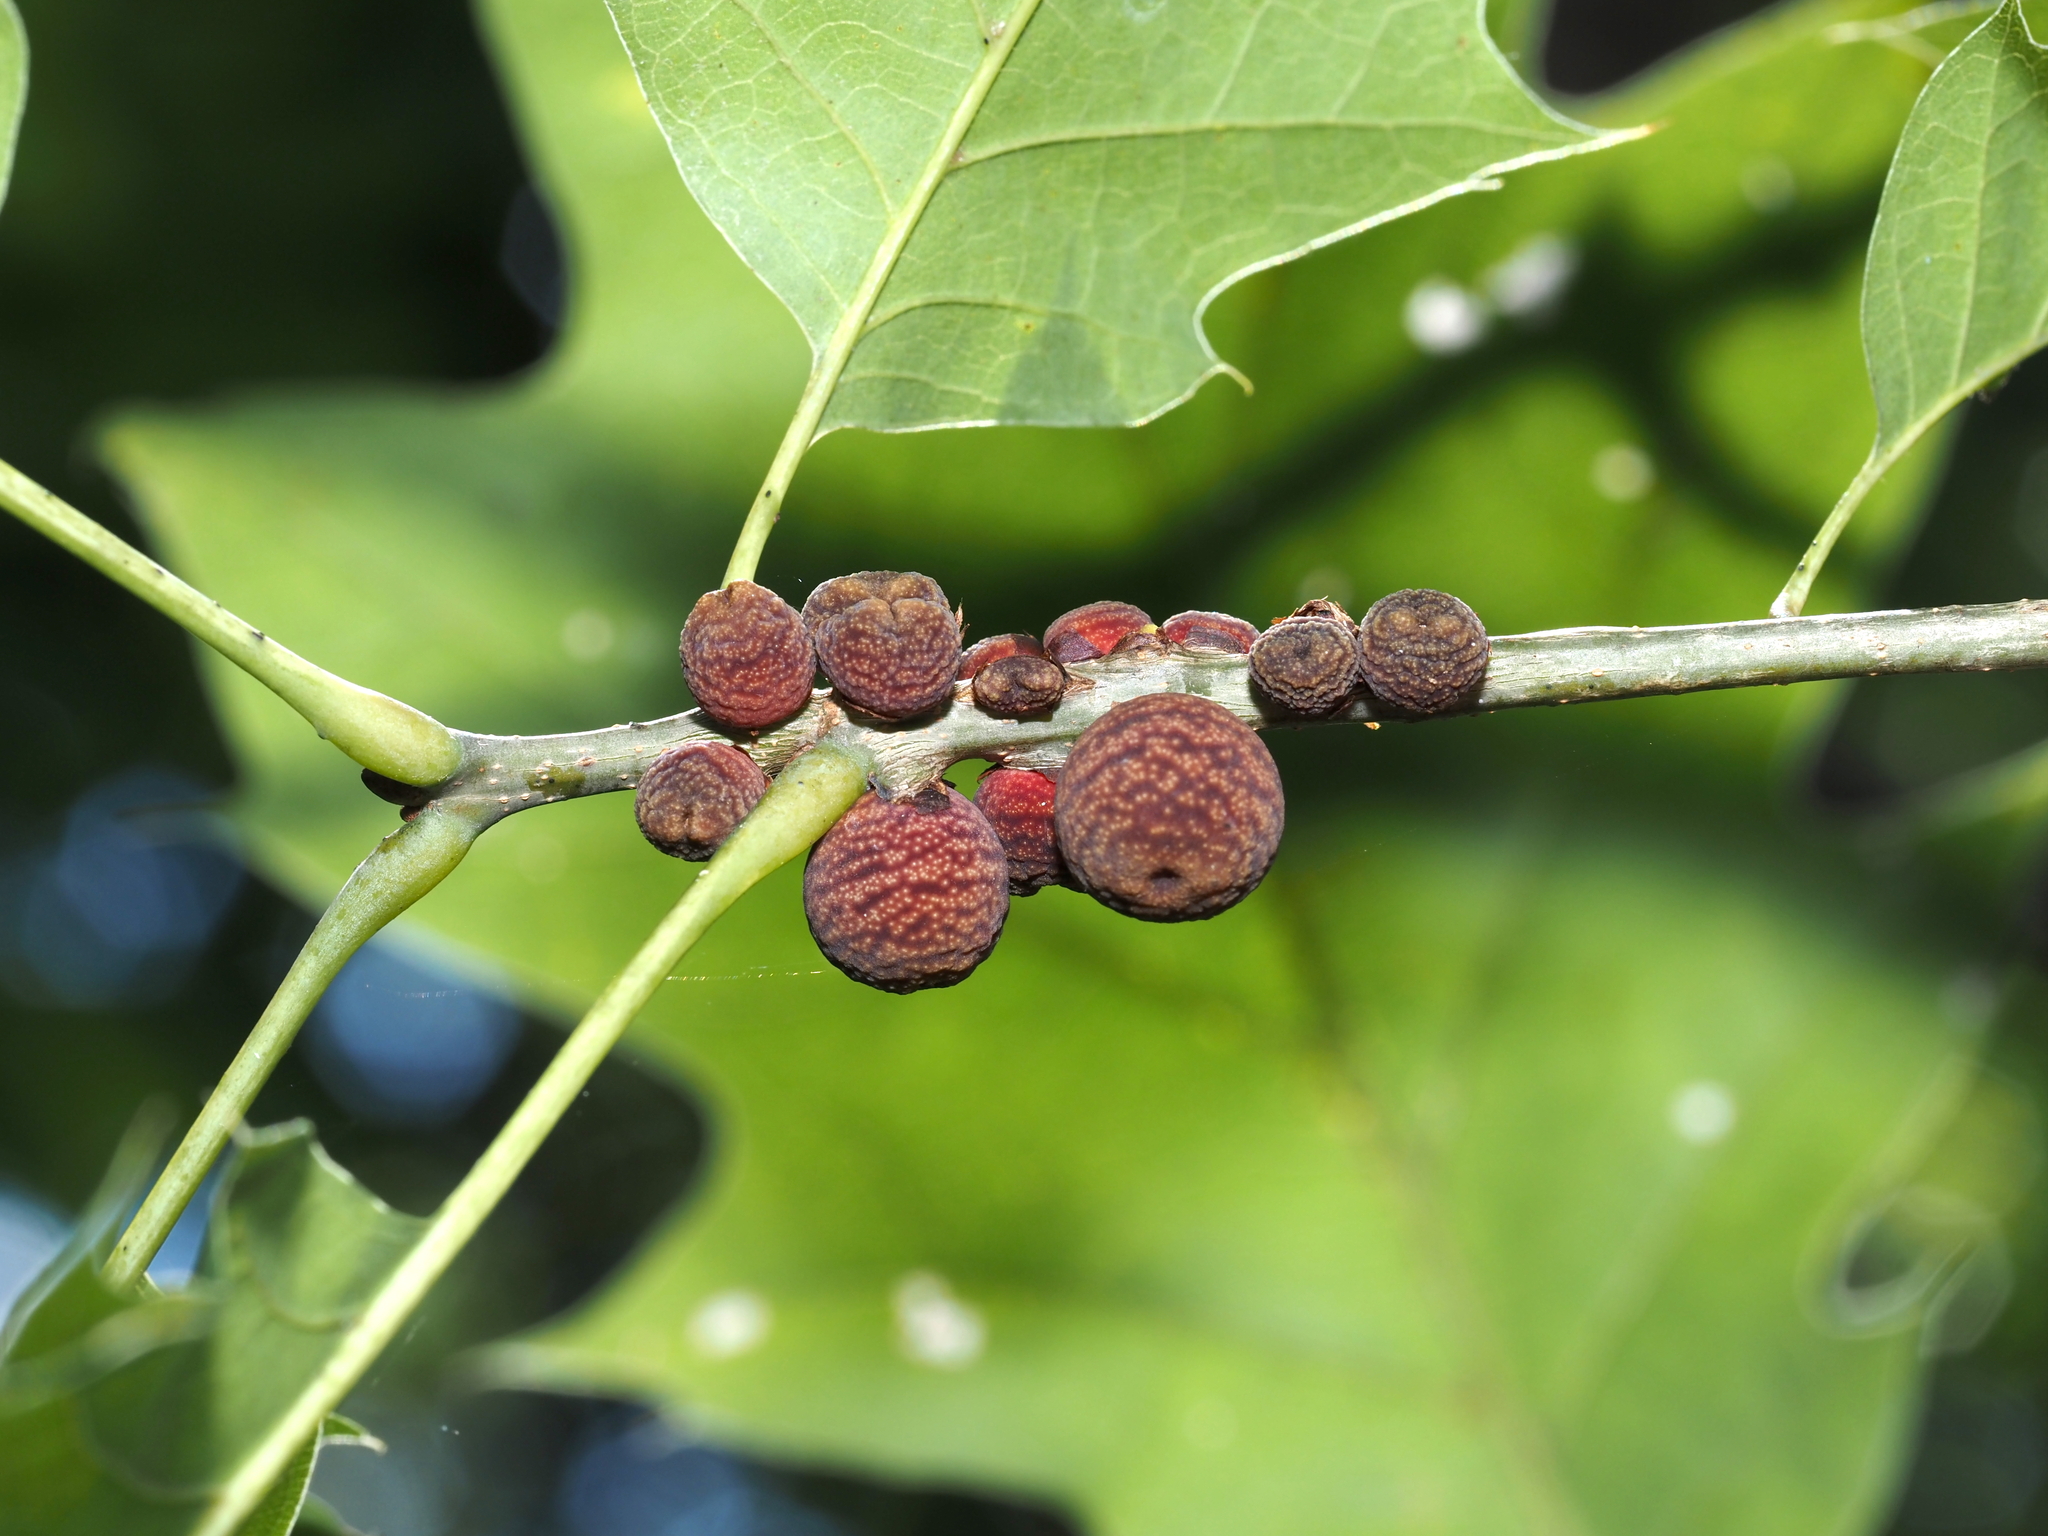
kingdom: Animalia
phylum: Arthropoda
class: Insecta
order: Hymenoptera
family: Cynipidae
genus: Kokkocynips
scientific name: Kokkocynips imbricariae
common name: Banded bullet gall wasp
